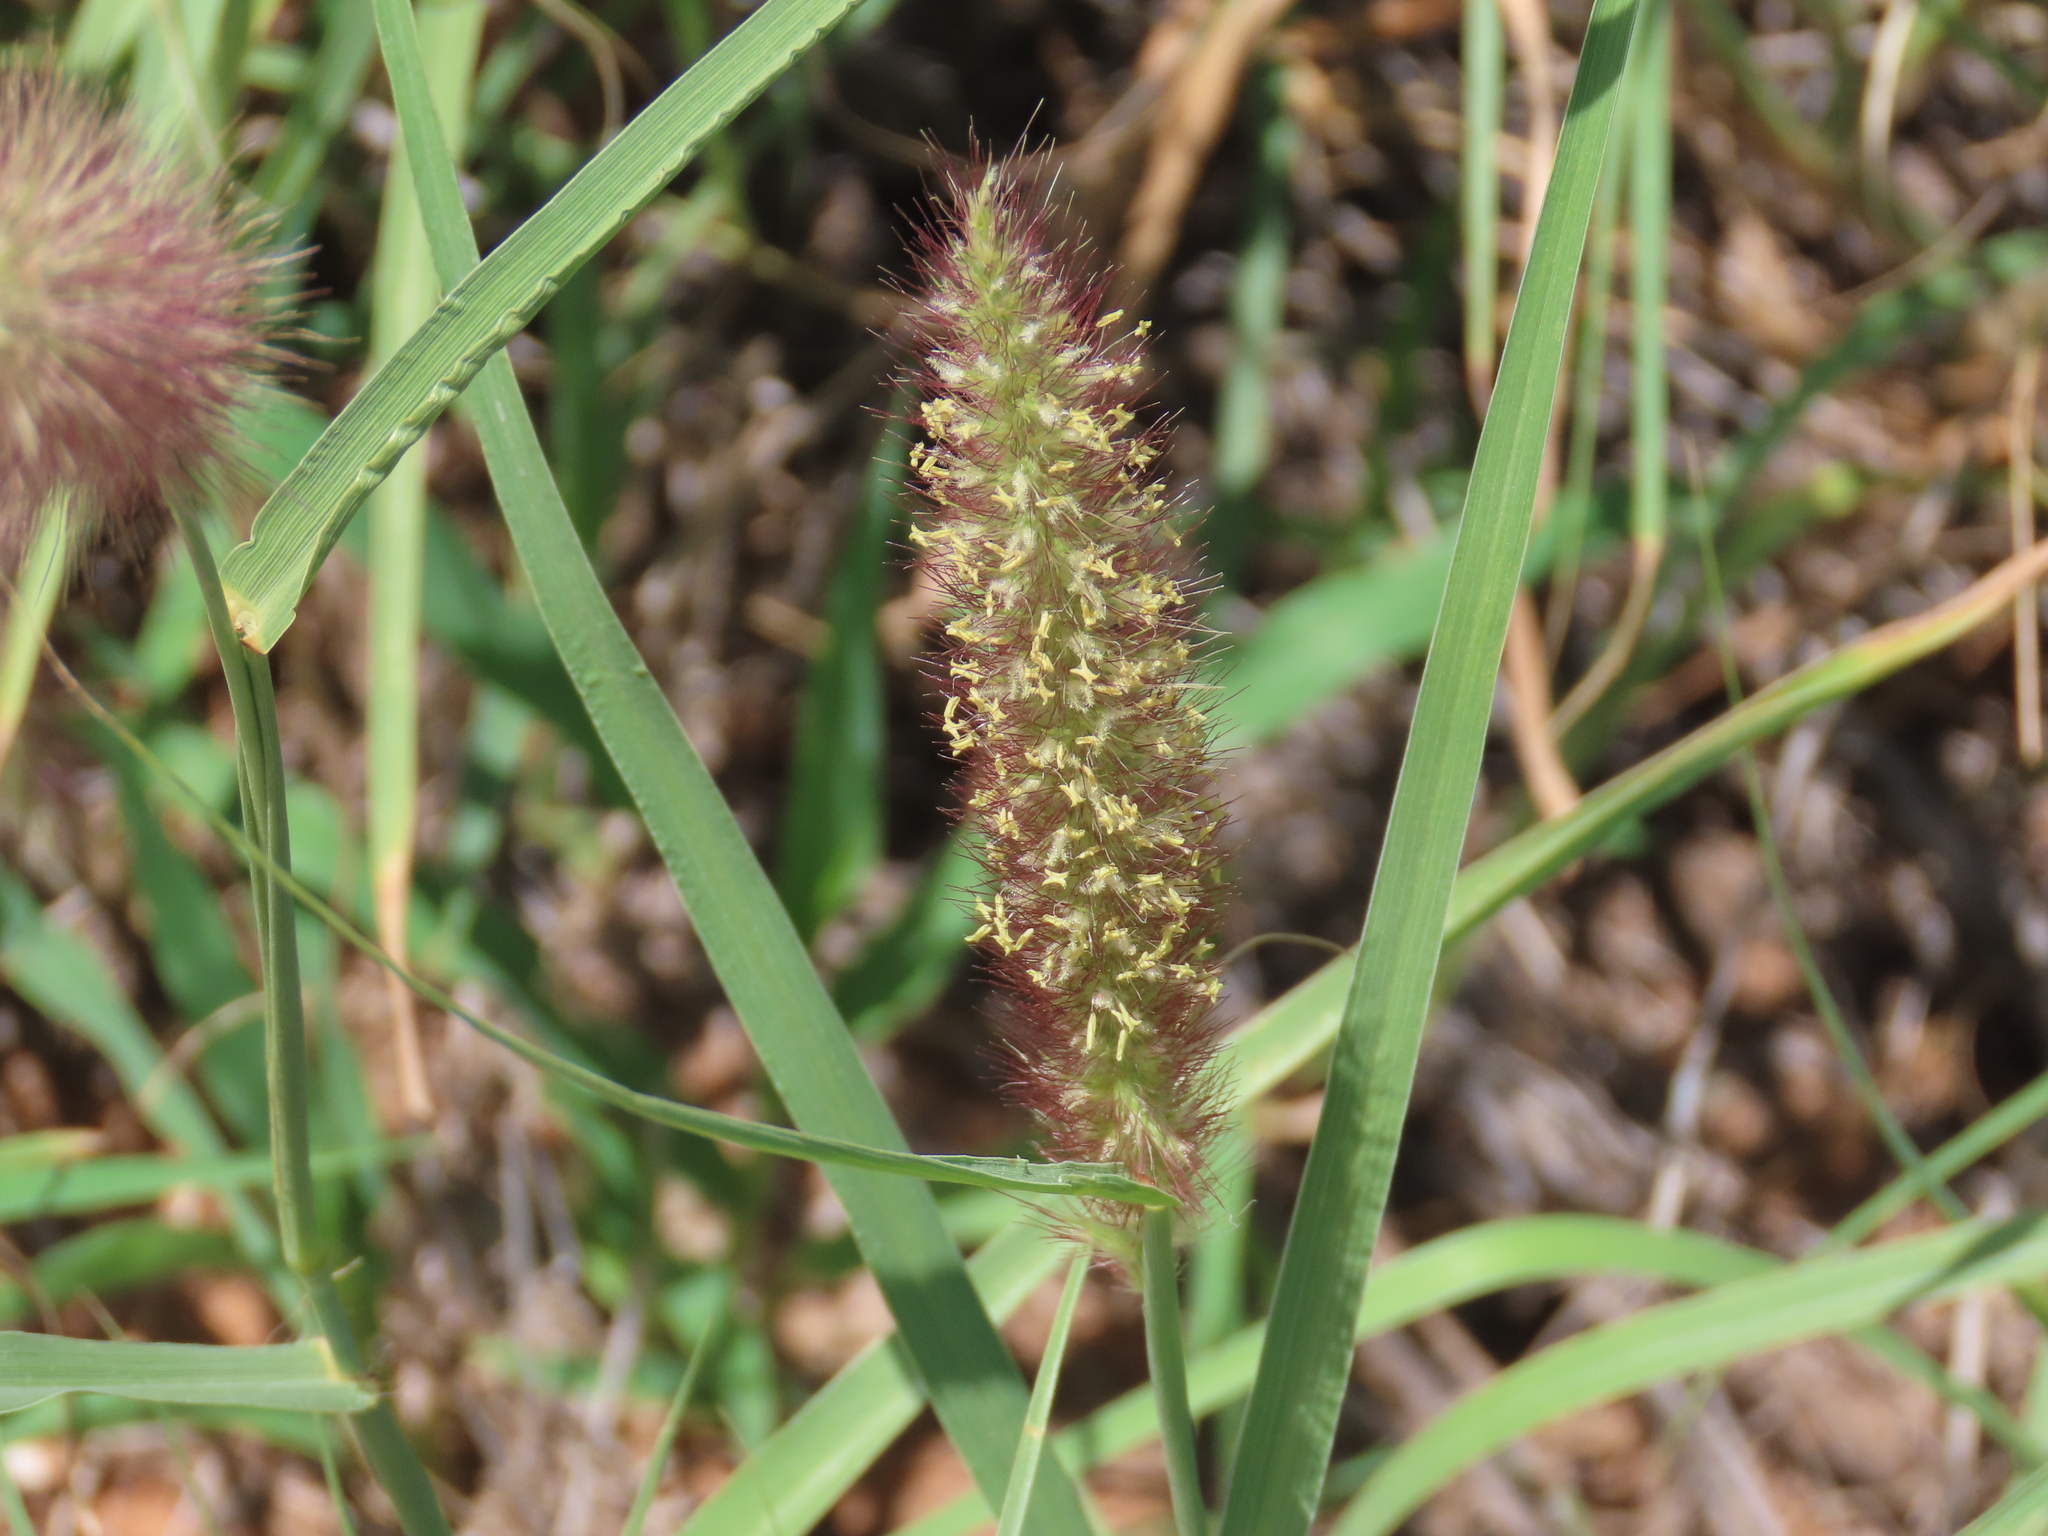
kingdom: Plantae
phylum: Tracheophyta
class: Liliopsida
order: Poales
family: Poaceae
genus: Cenchrus
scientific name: Cenchrus ciliaris
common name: Buffelgrass
